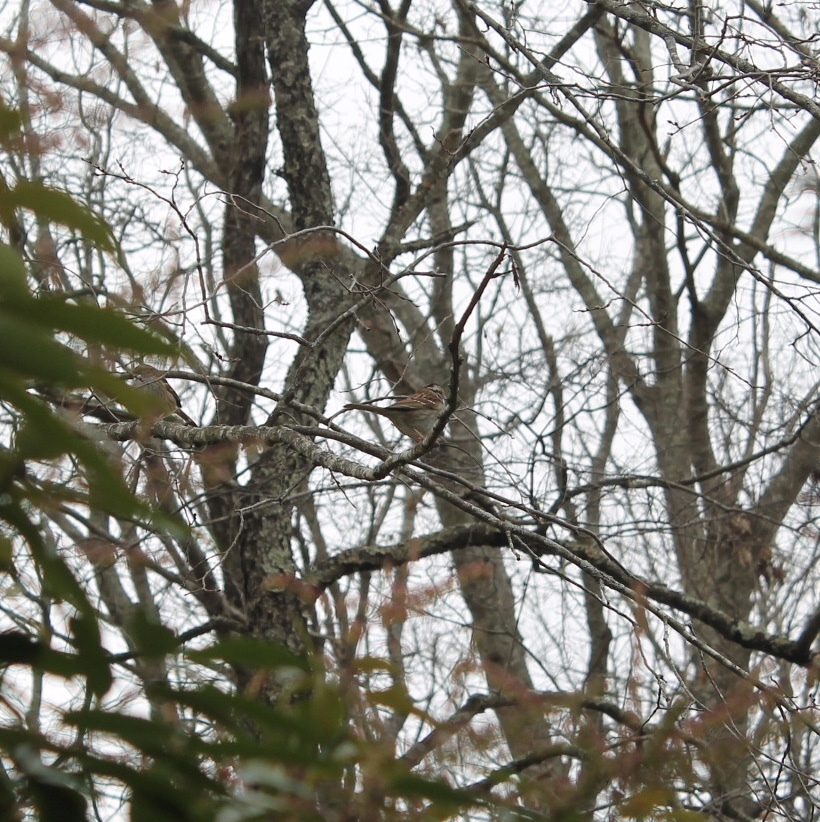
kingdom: Animalia
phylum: Chordata
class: Aves
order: Passeriformes
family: Passerellidae
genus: Zonotrichia
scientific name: Zonotrichia albicollis
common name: White-throated sparrow
